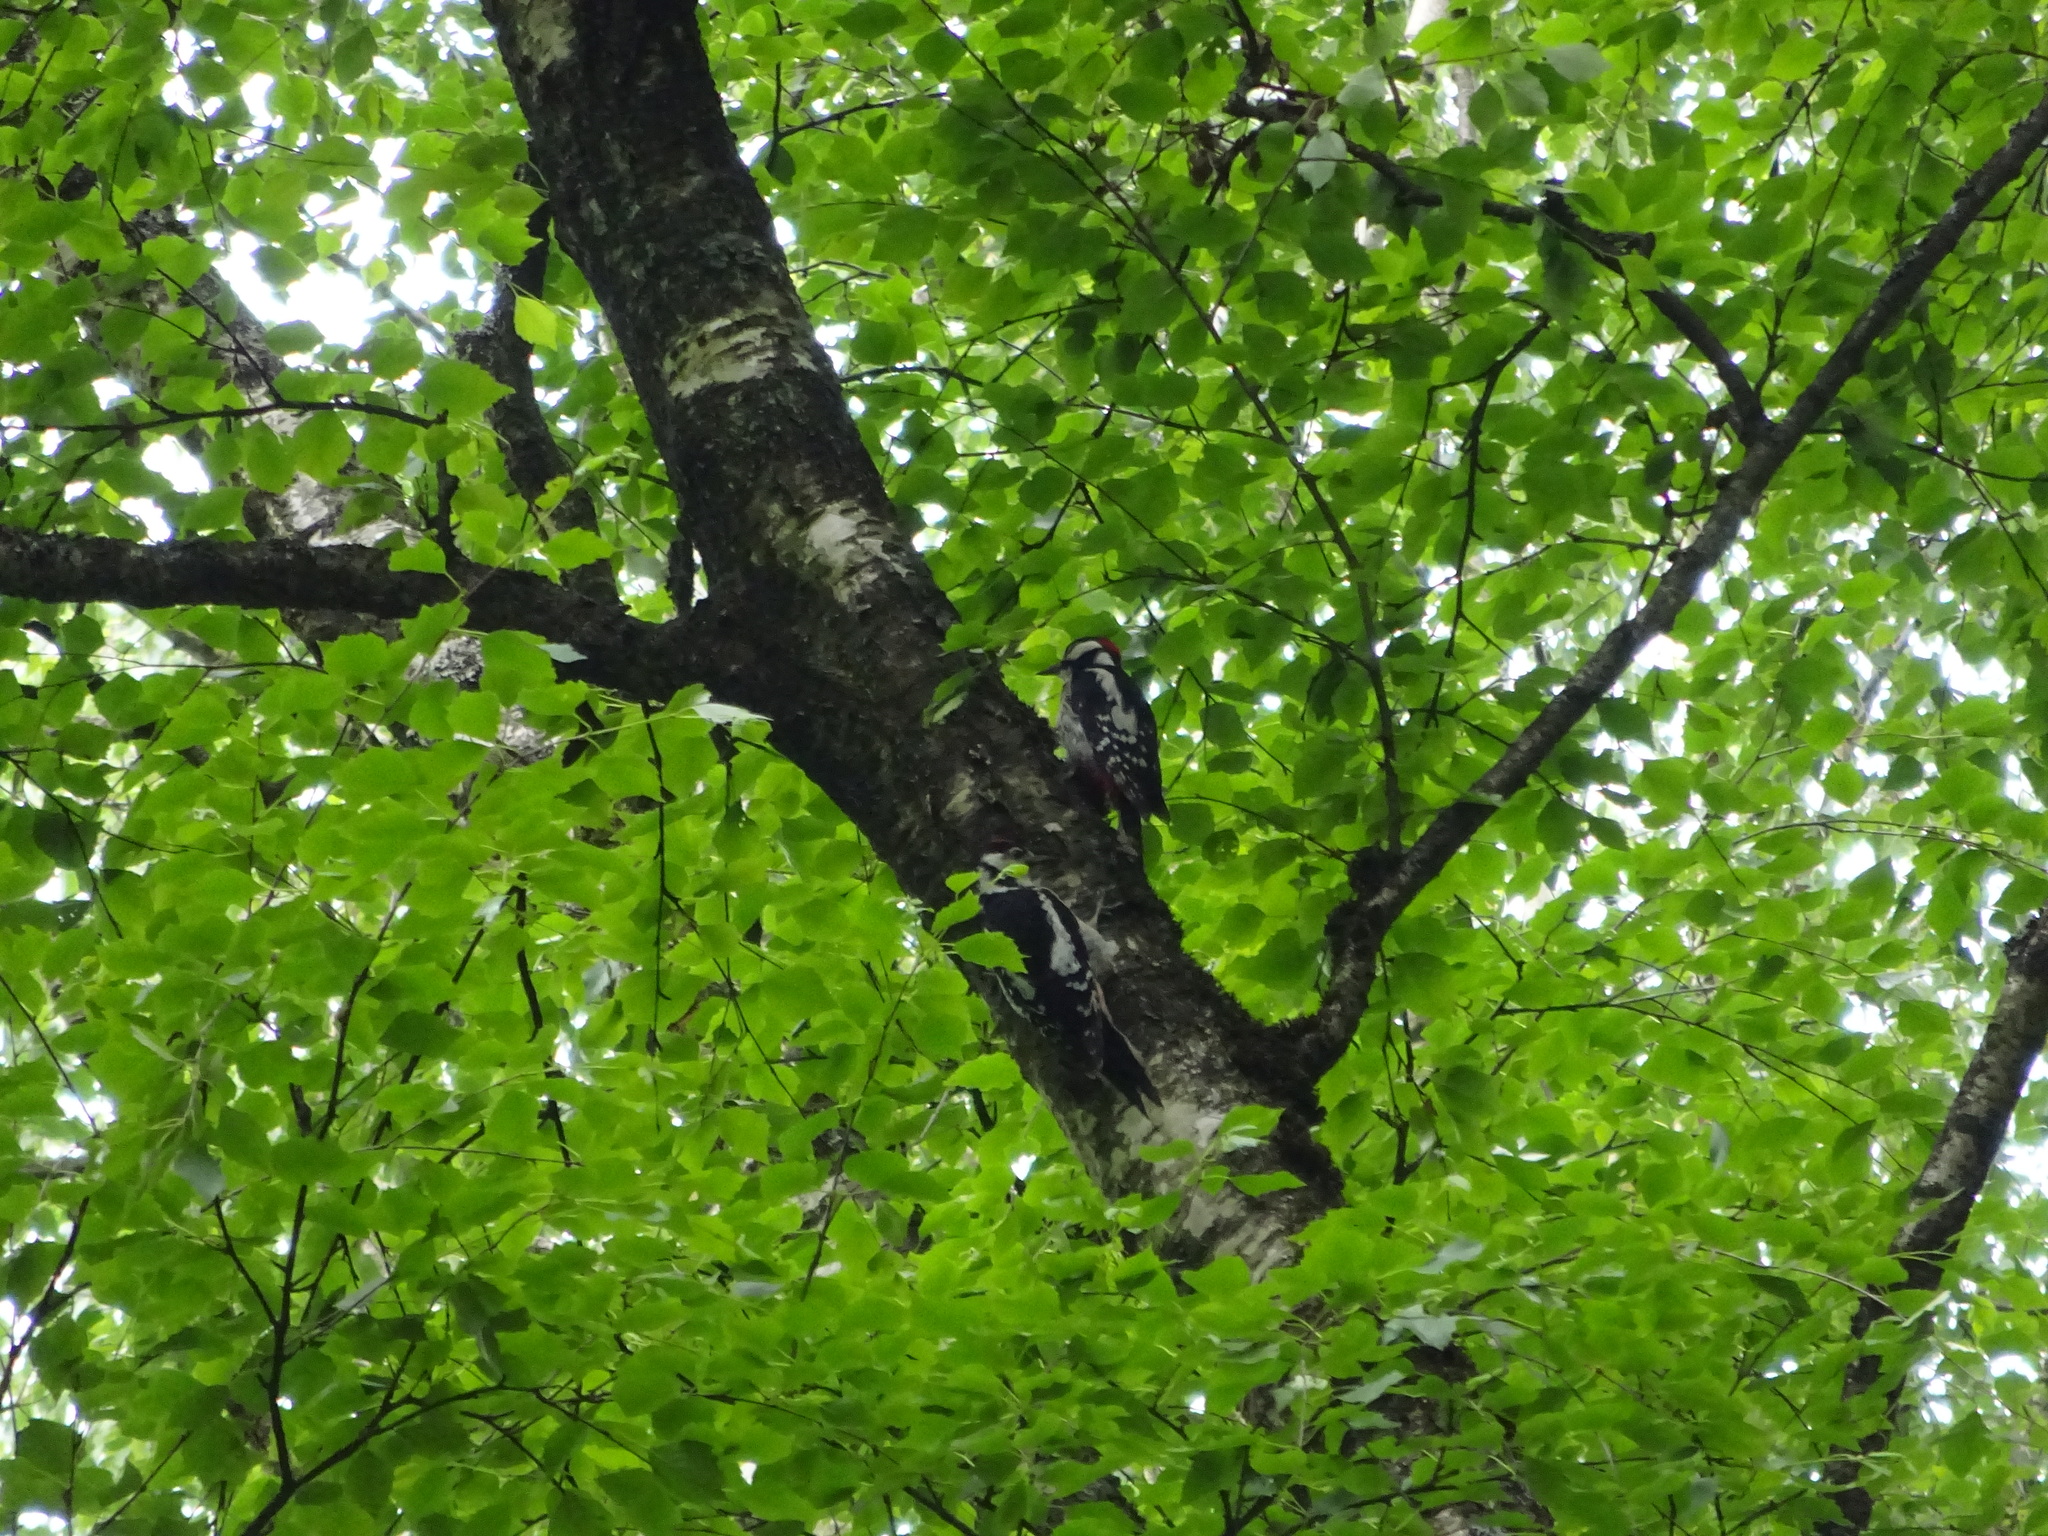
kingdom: Animalia
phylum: Chordata
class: Aves
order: Piciformes
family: Picidae
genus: Dendrocopos
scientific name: Dendrocopos major
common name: Great spotted woodpecker
